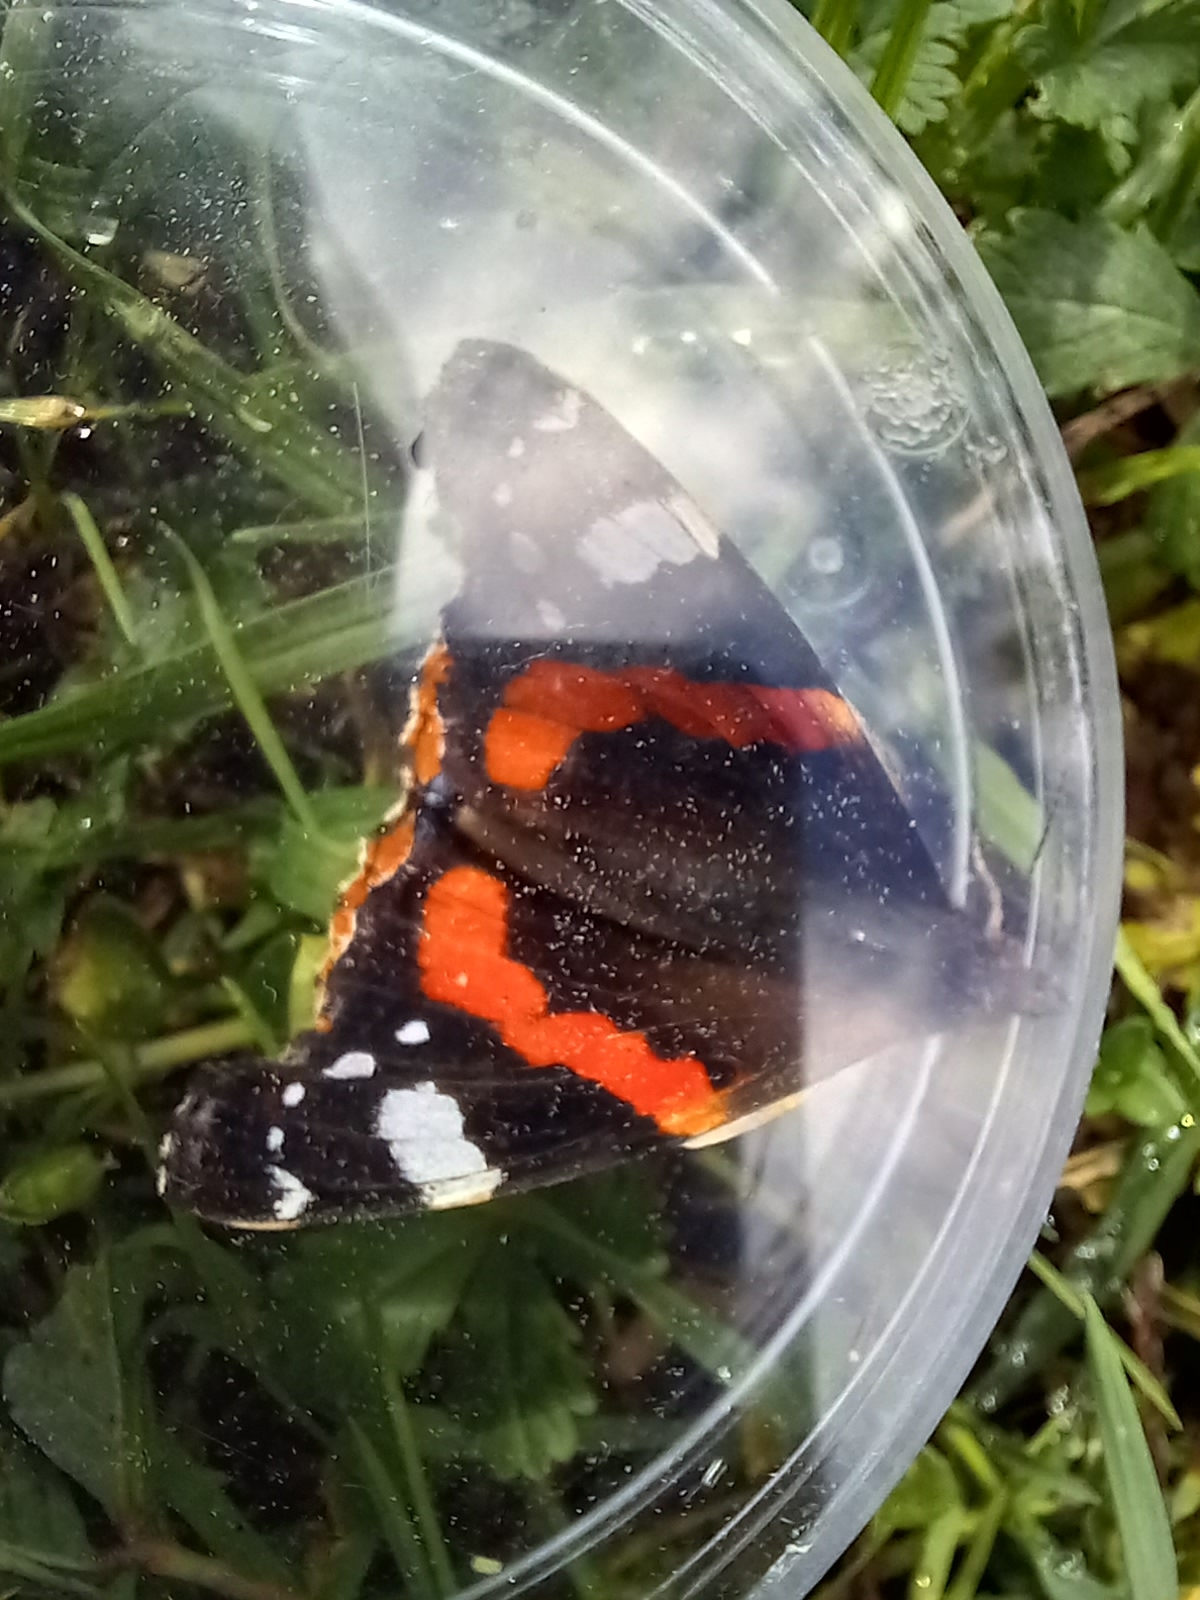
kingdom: Animalia
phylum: Arthropoda
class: Insecta
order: Lepidoptera
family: Nymphalidae
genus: Vanessa
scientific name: Vanessa atalanta
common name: Red admiral
